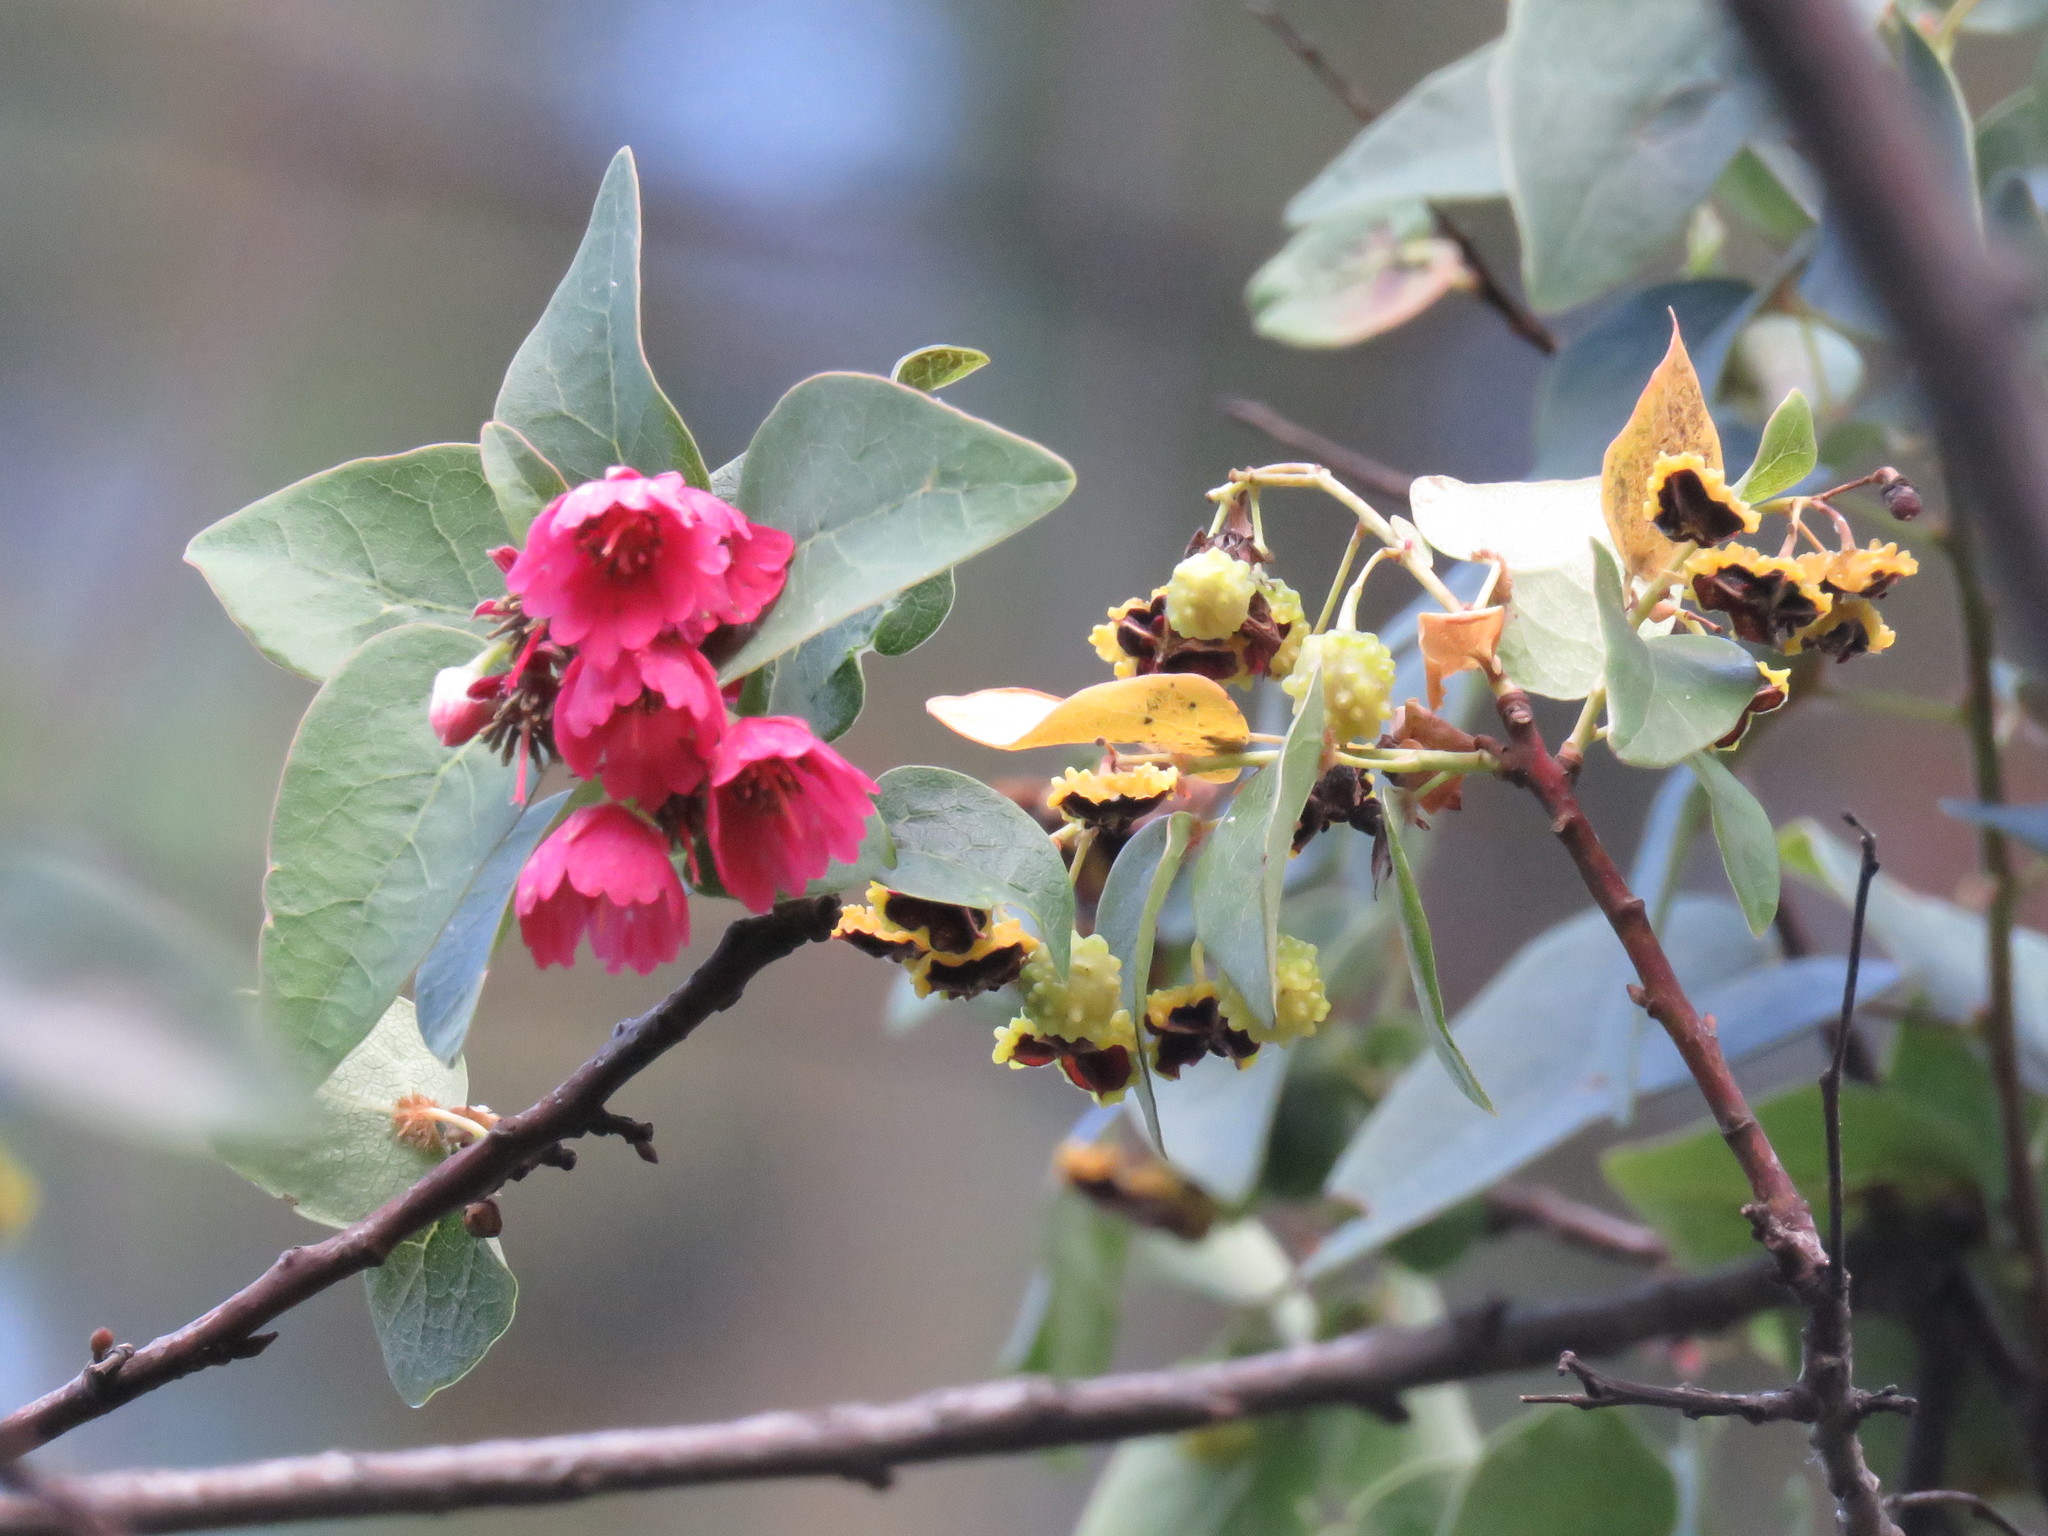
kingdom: Plantae
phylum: Tracheophyta
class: Magnoliopsida
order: Oxalidales
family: Elaeocarpaceae
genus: Vallea
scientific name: Vallea stipularis
